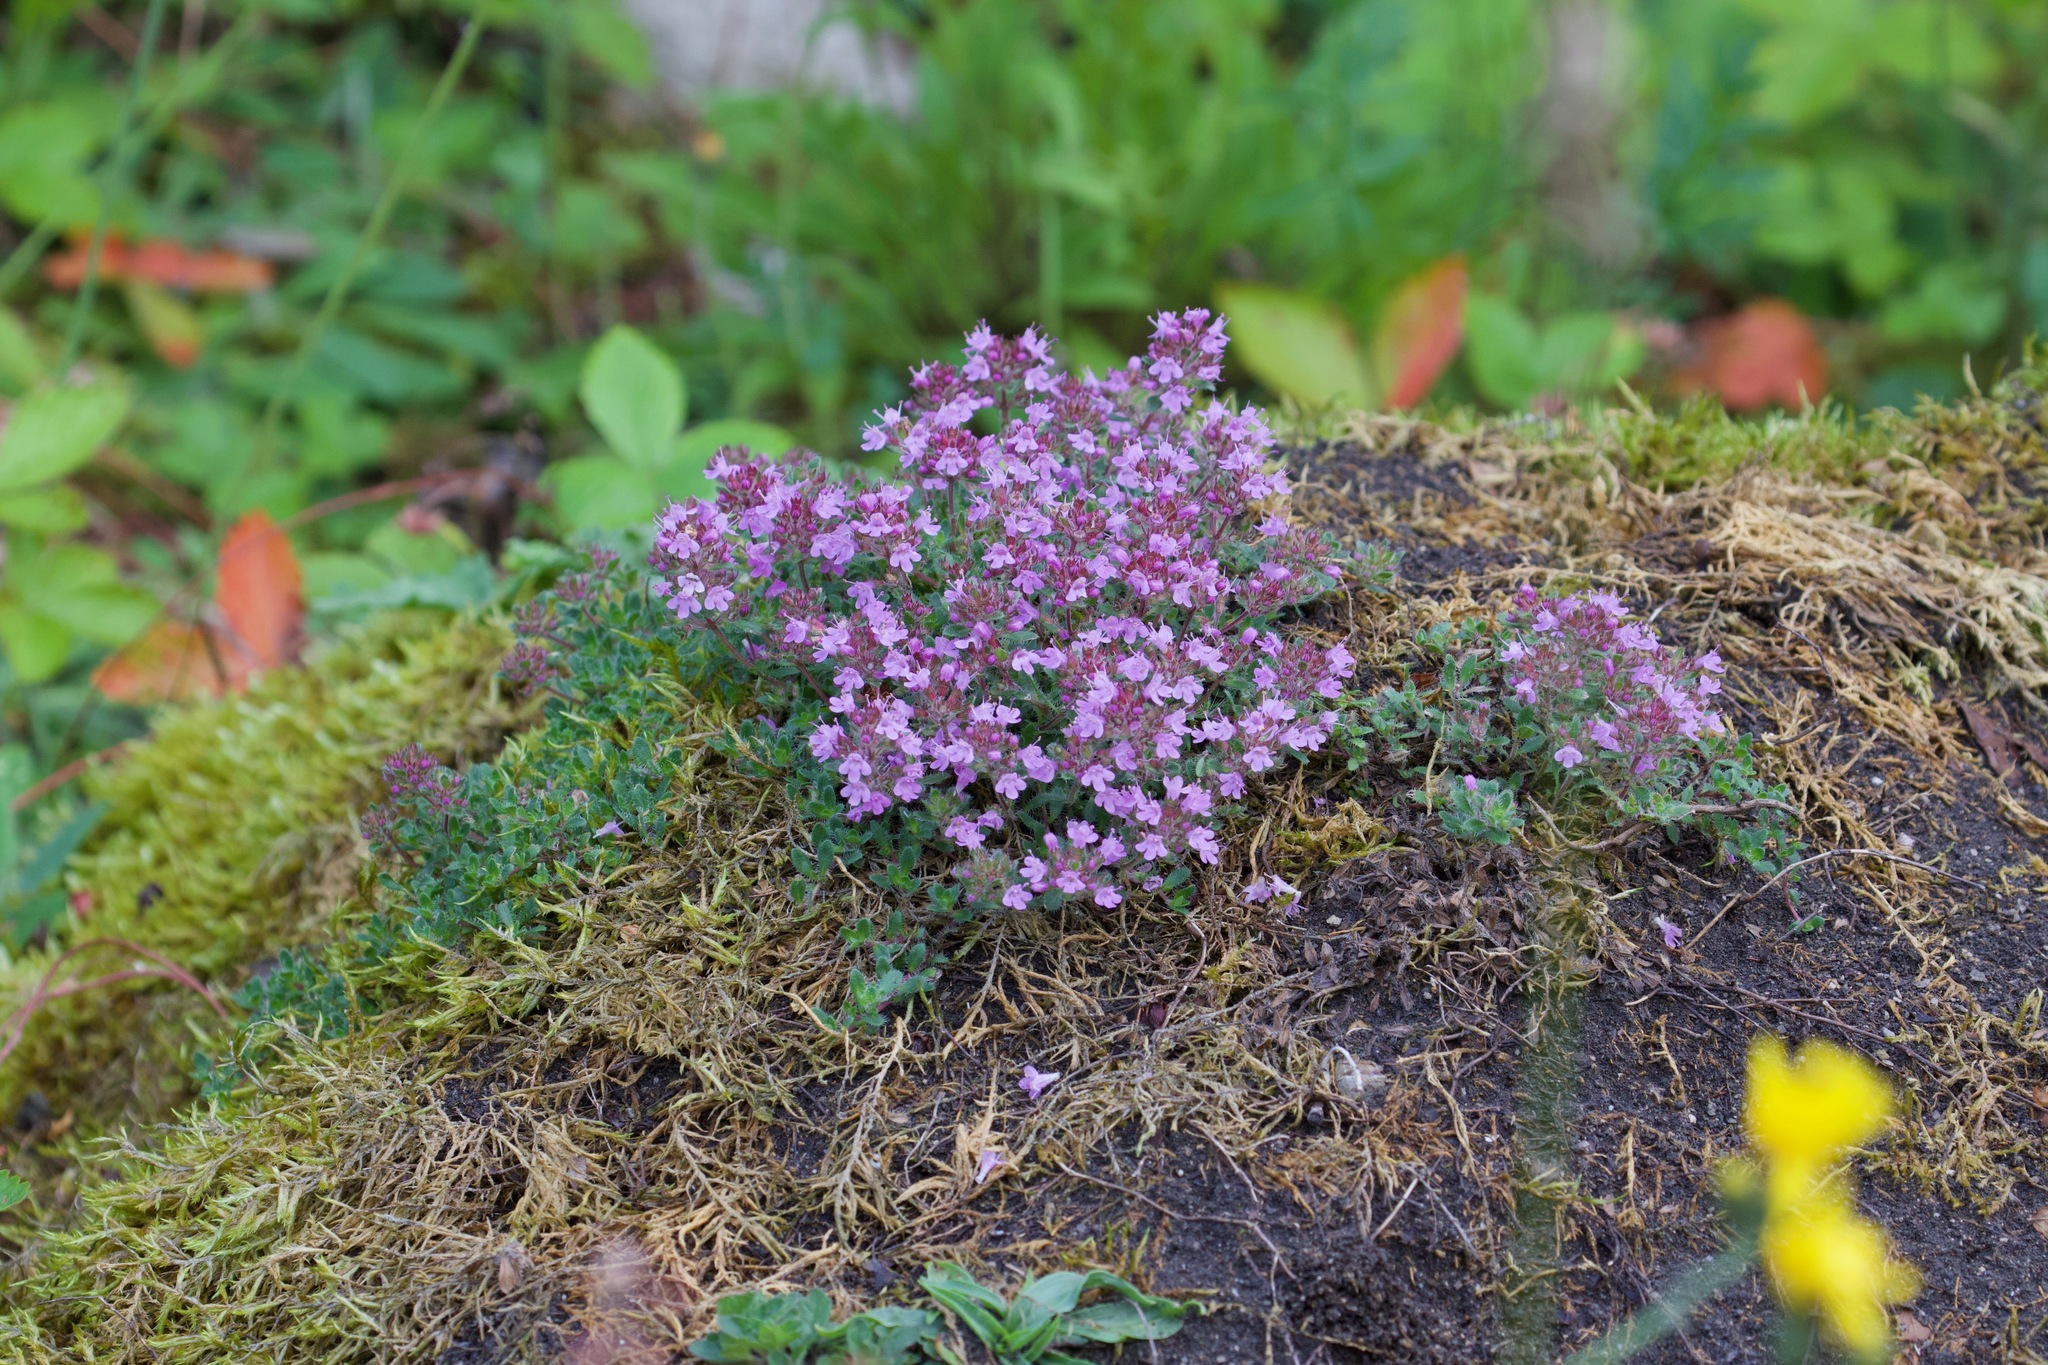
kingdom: Plantae
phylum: Tracheophyta
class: Magnoliopsida
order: Lamiales
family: Lamiaceae
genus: Thymus
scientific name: Thymus praecox
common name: Wild thyme
